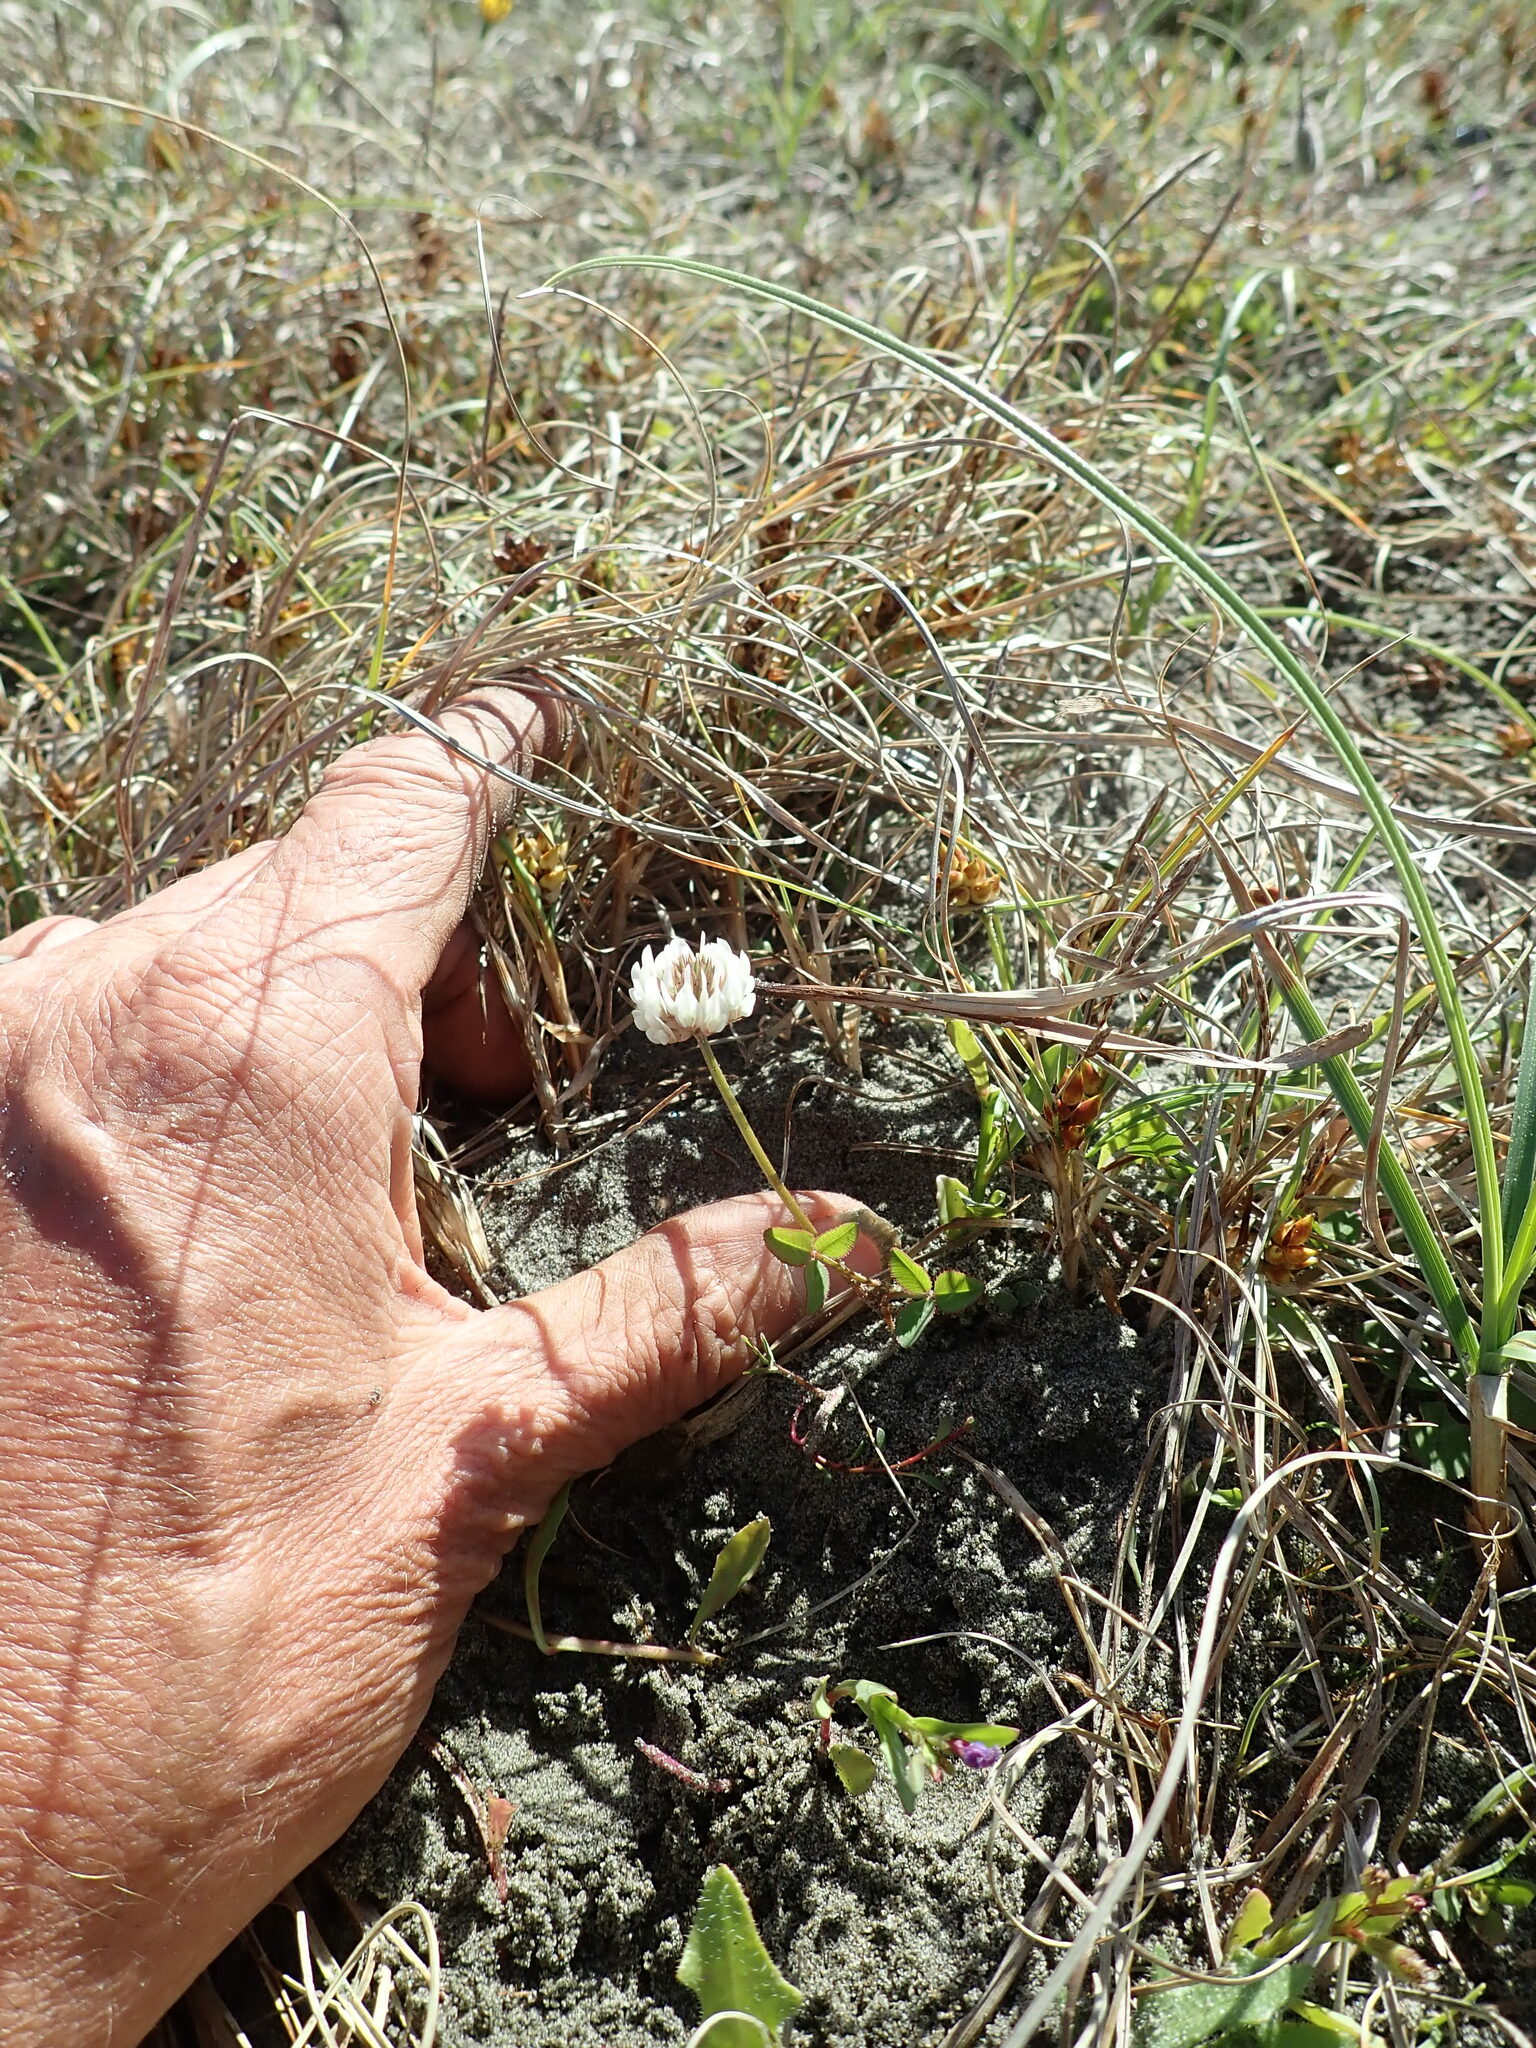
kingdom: Plantae
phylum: Tracheophyta
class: Magnoliopsida
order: Fabales
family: Fabaceae
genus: Trifolium
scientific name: Trifolium repens
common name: White clover
